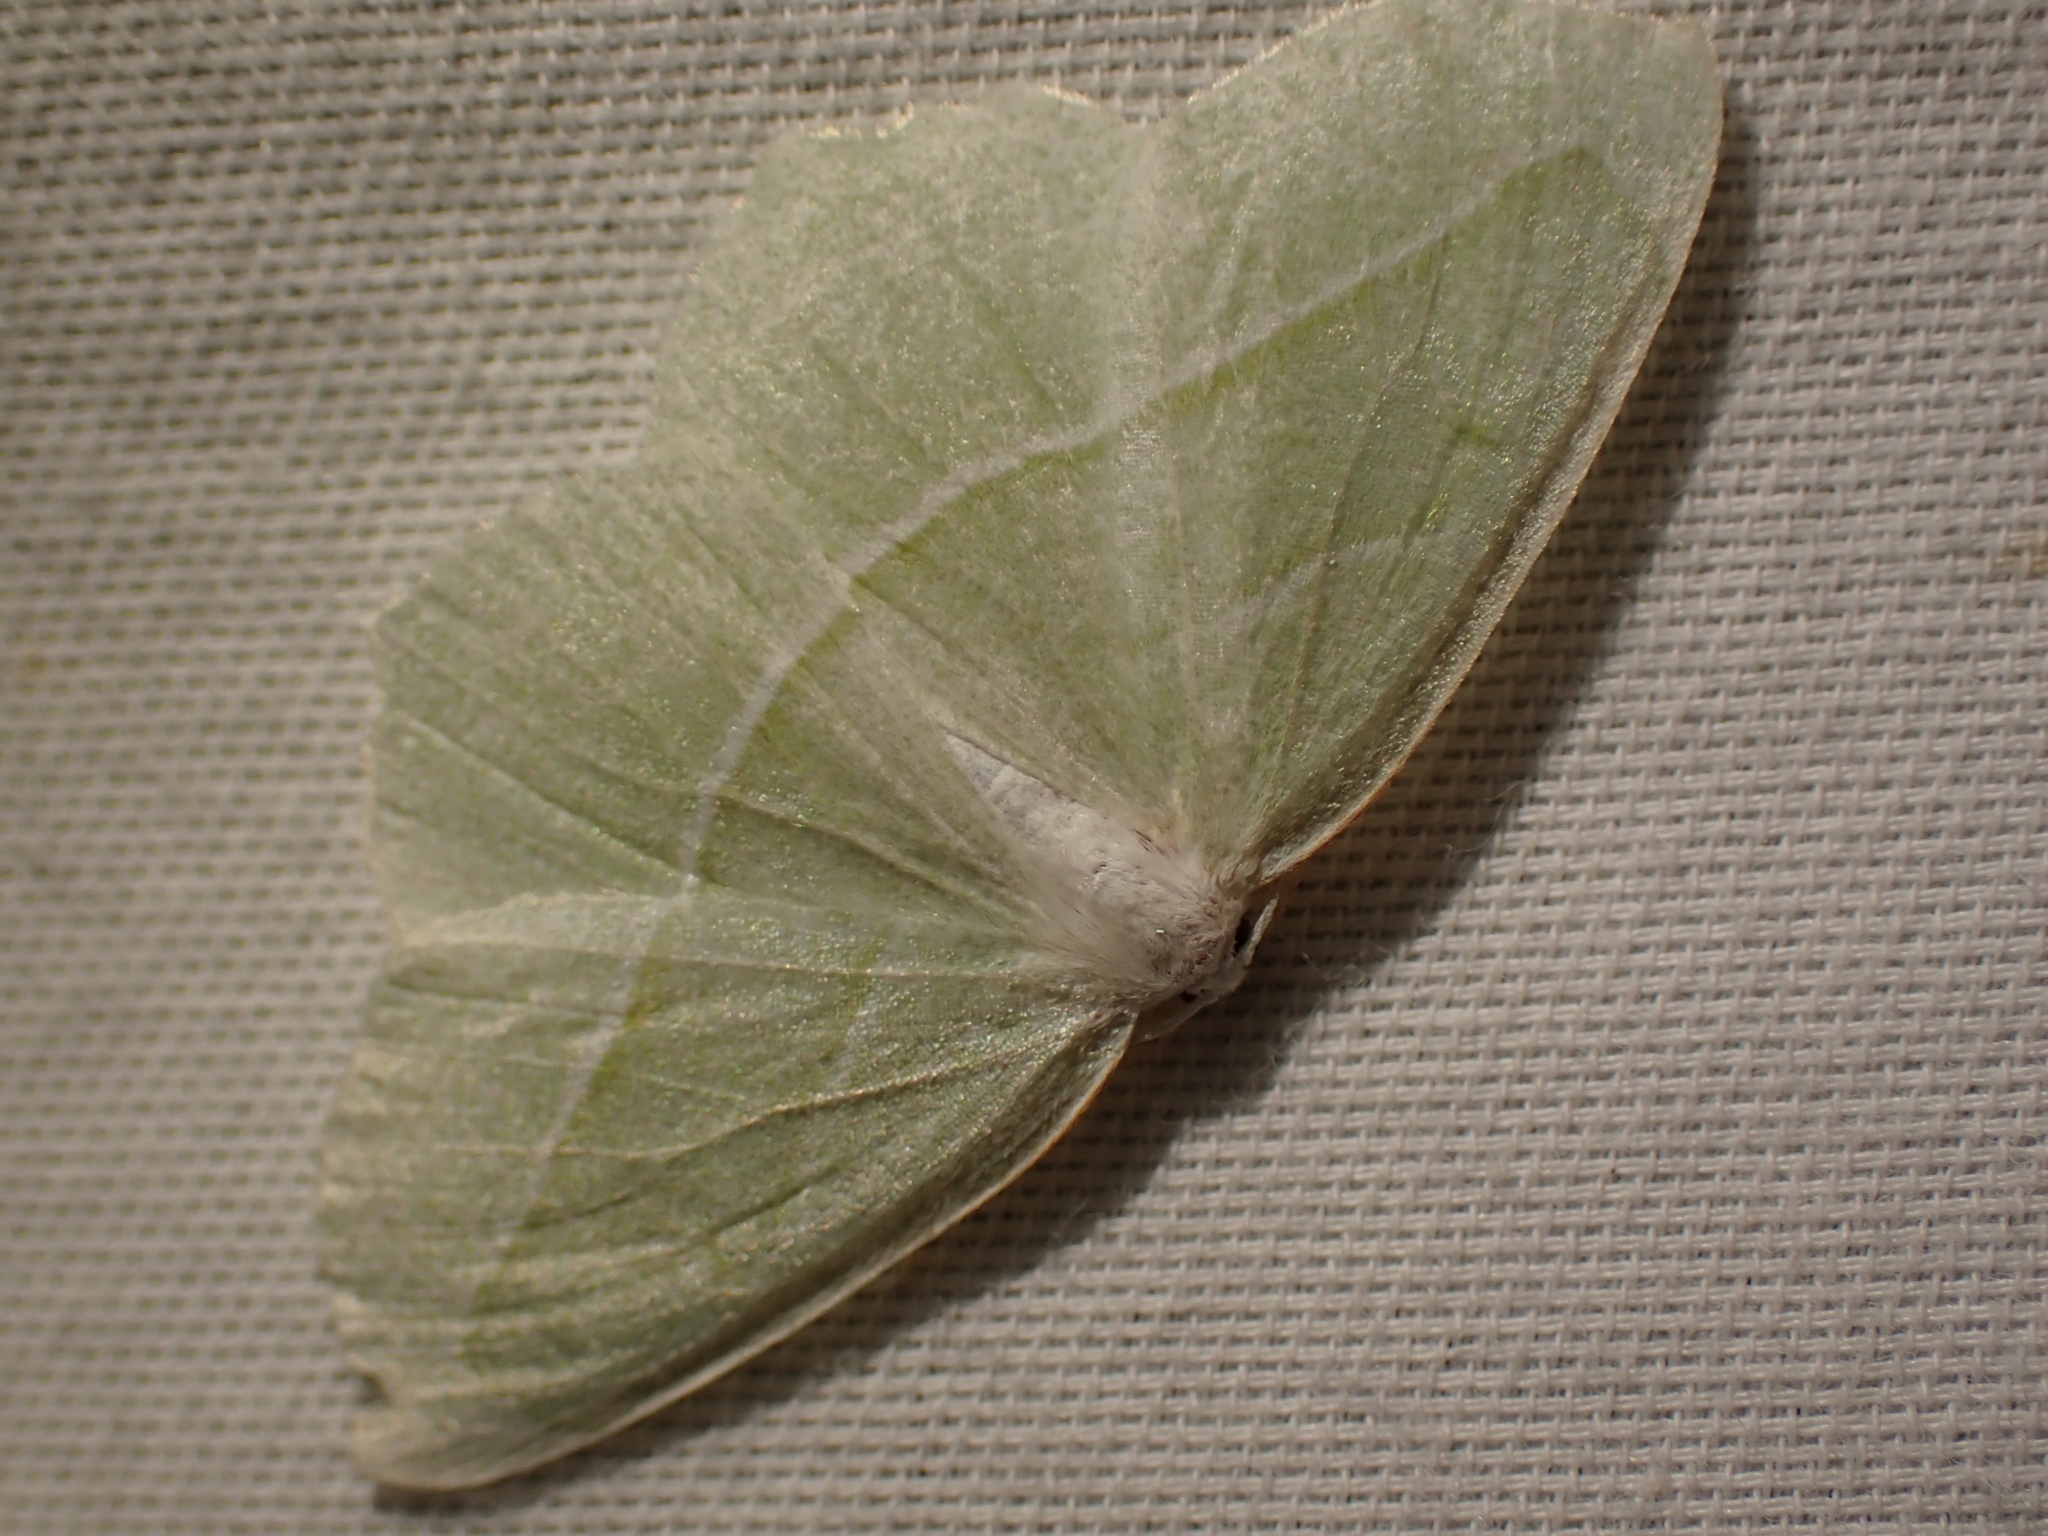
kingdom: Animalia
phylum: Arthropoda
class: Insecta
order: Lepidoptera
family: Geometridae
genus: Campaea
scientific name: Campaea perlata
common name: Fringed looper
